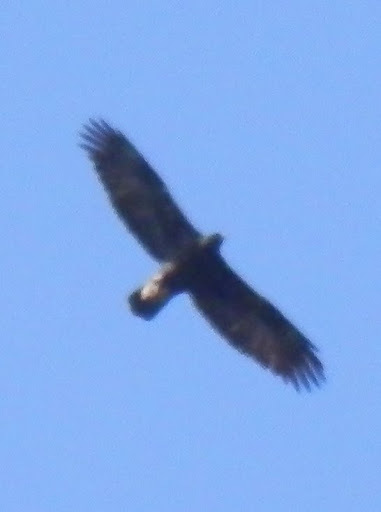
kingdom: Animalia
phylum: Chordata
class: Aves
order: Accipitriformes
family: Accipitridae
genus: Aquila
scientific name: Aquila chrysaetos
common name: Golden eagle
